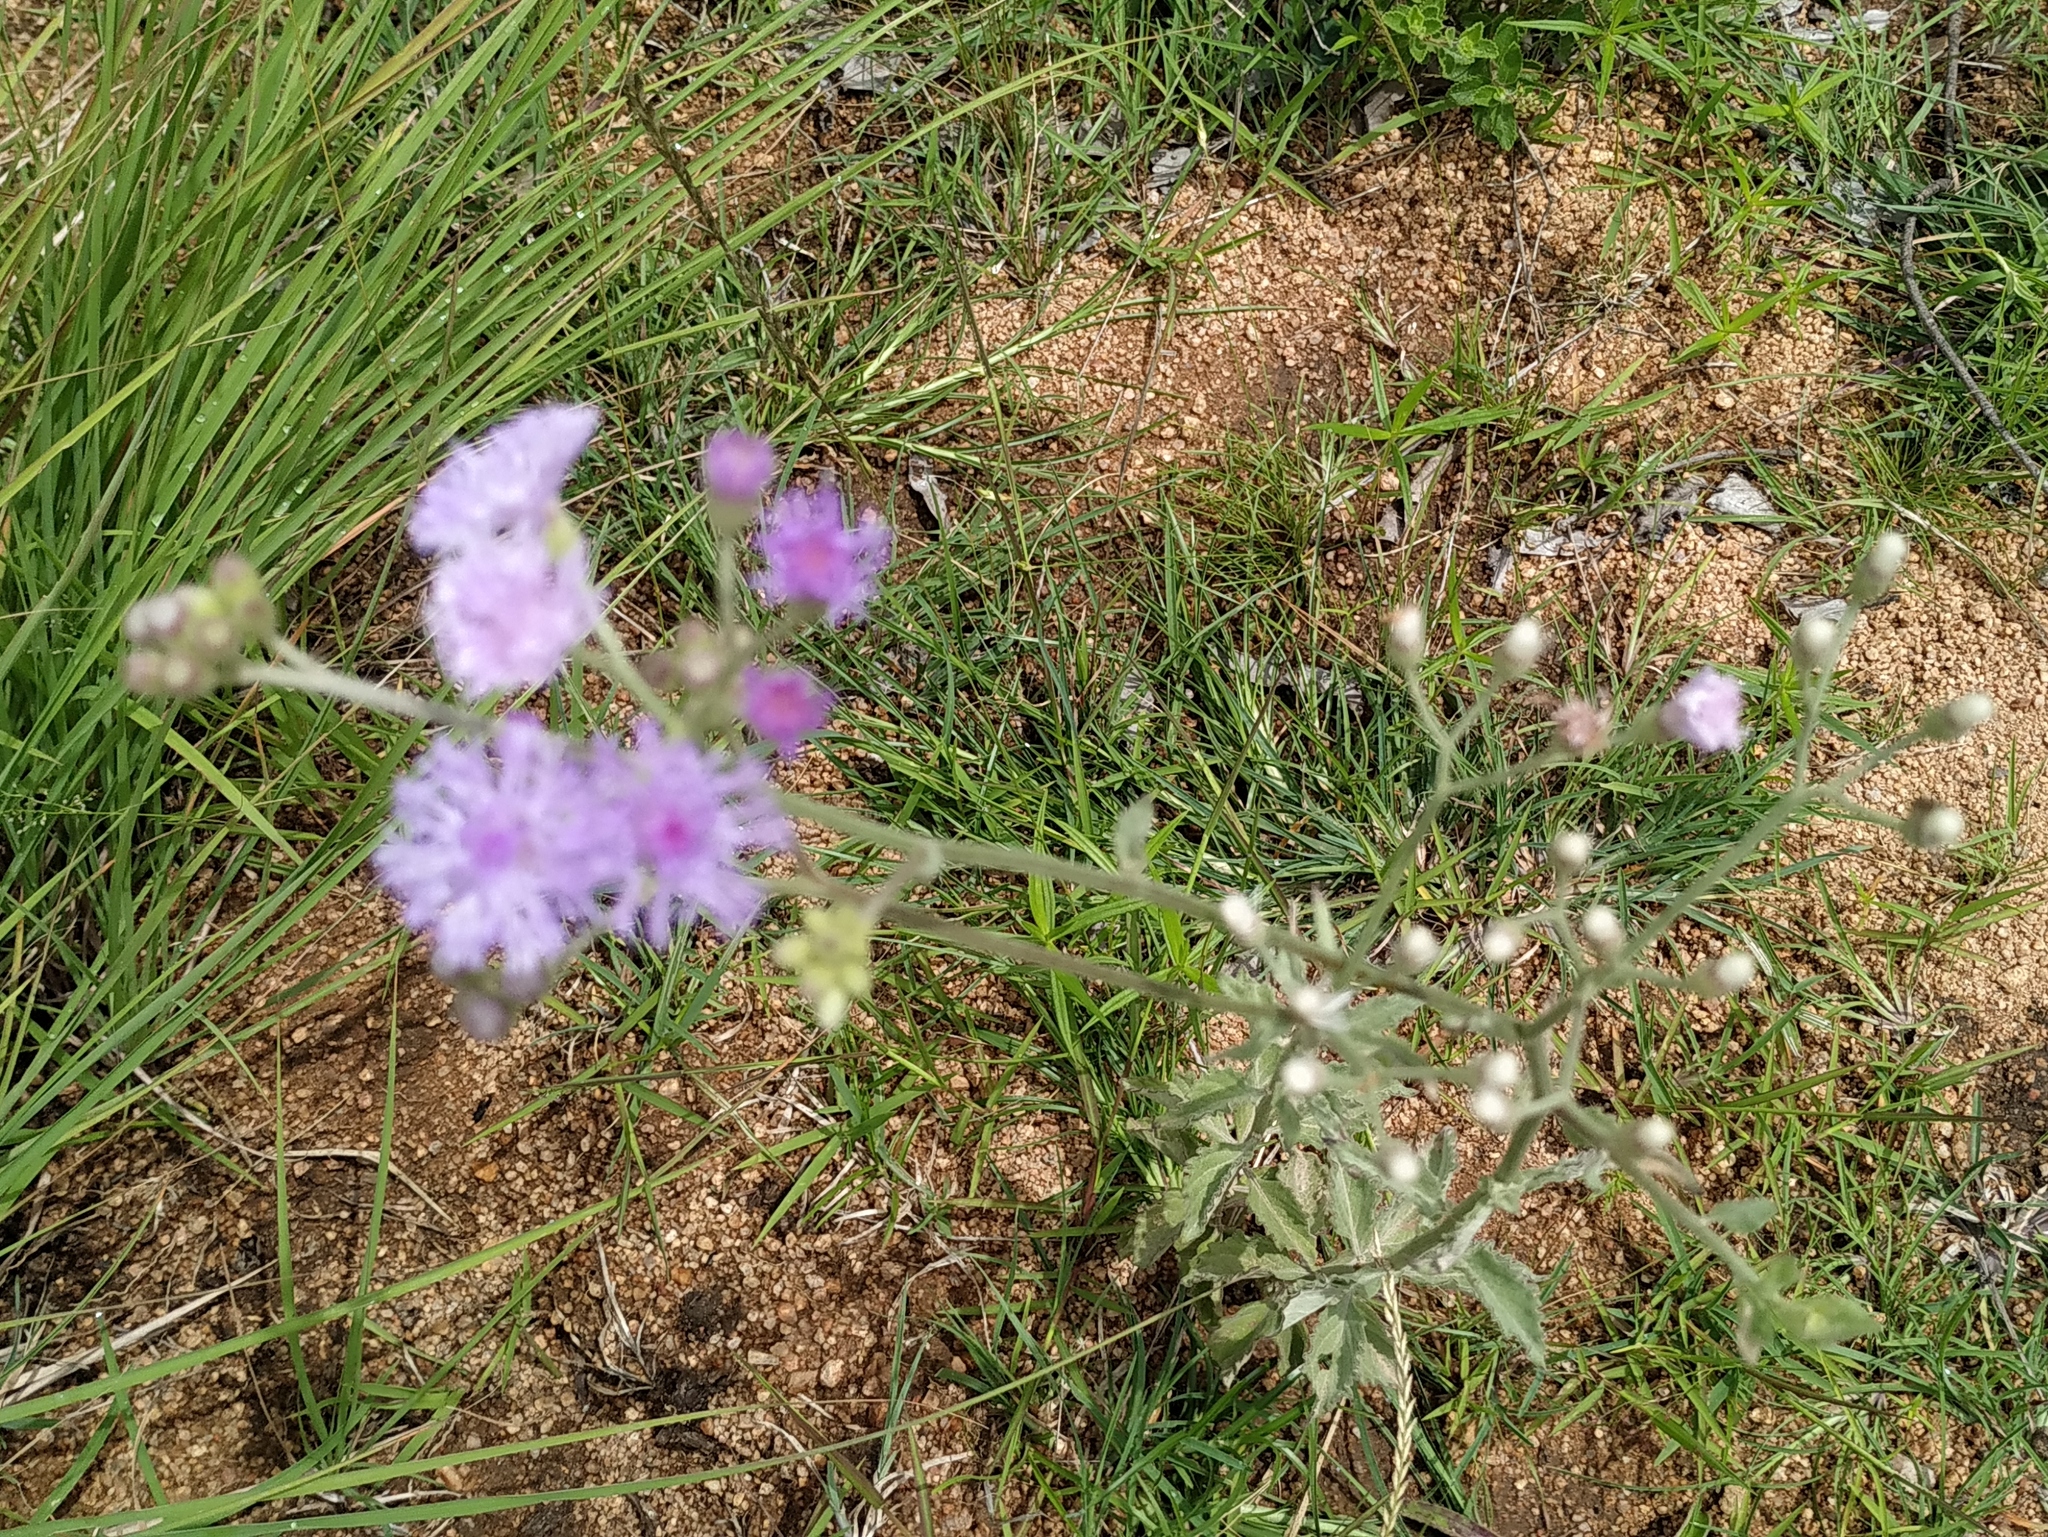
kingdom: Plantae
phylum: Tracheophyta
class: Magnoliopsida
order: Asterales
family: Asteraceae
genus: Cyanthillium
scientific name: Cyanthillium cinereum
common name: Little ironweed
